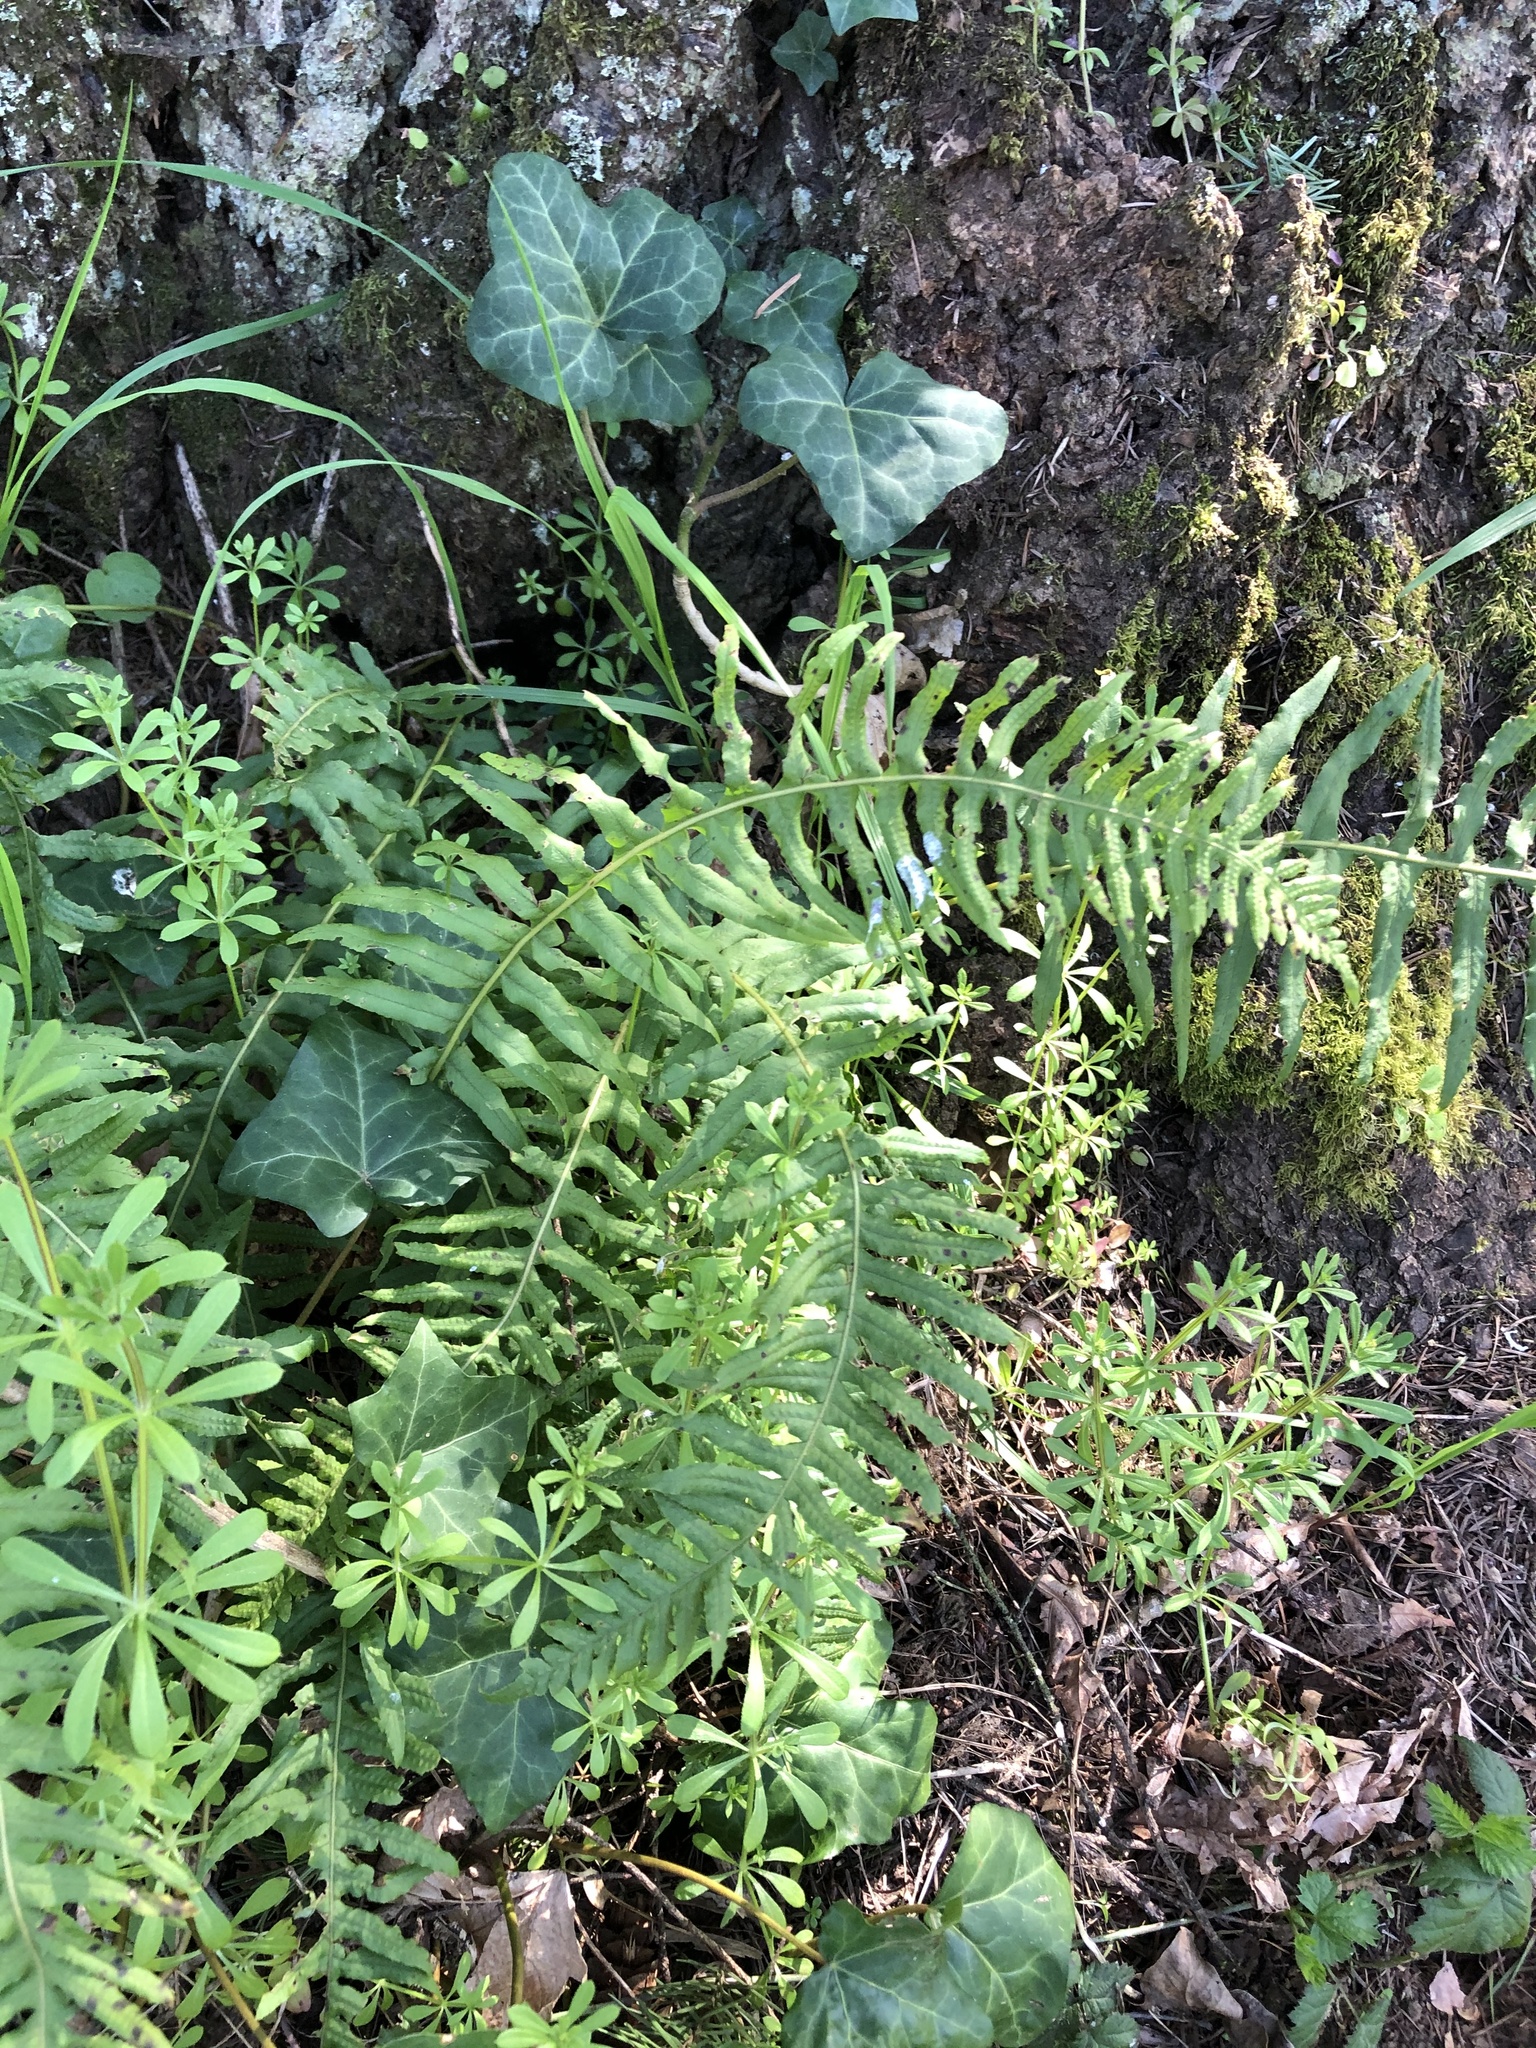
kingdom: Plantae
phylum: Tracheophyta
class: Polypodiopsida
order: Polypodiales
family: Dryopteridaceae
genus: Polystichum
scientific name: Polystichum munitum
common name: Western sword-fern
